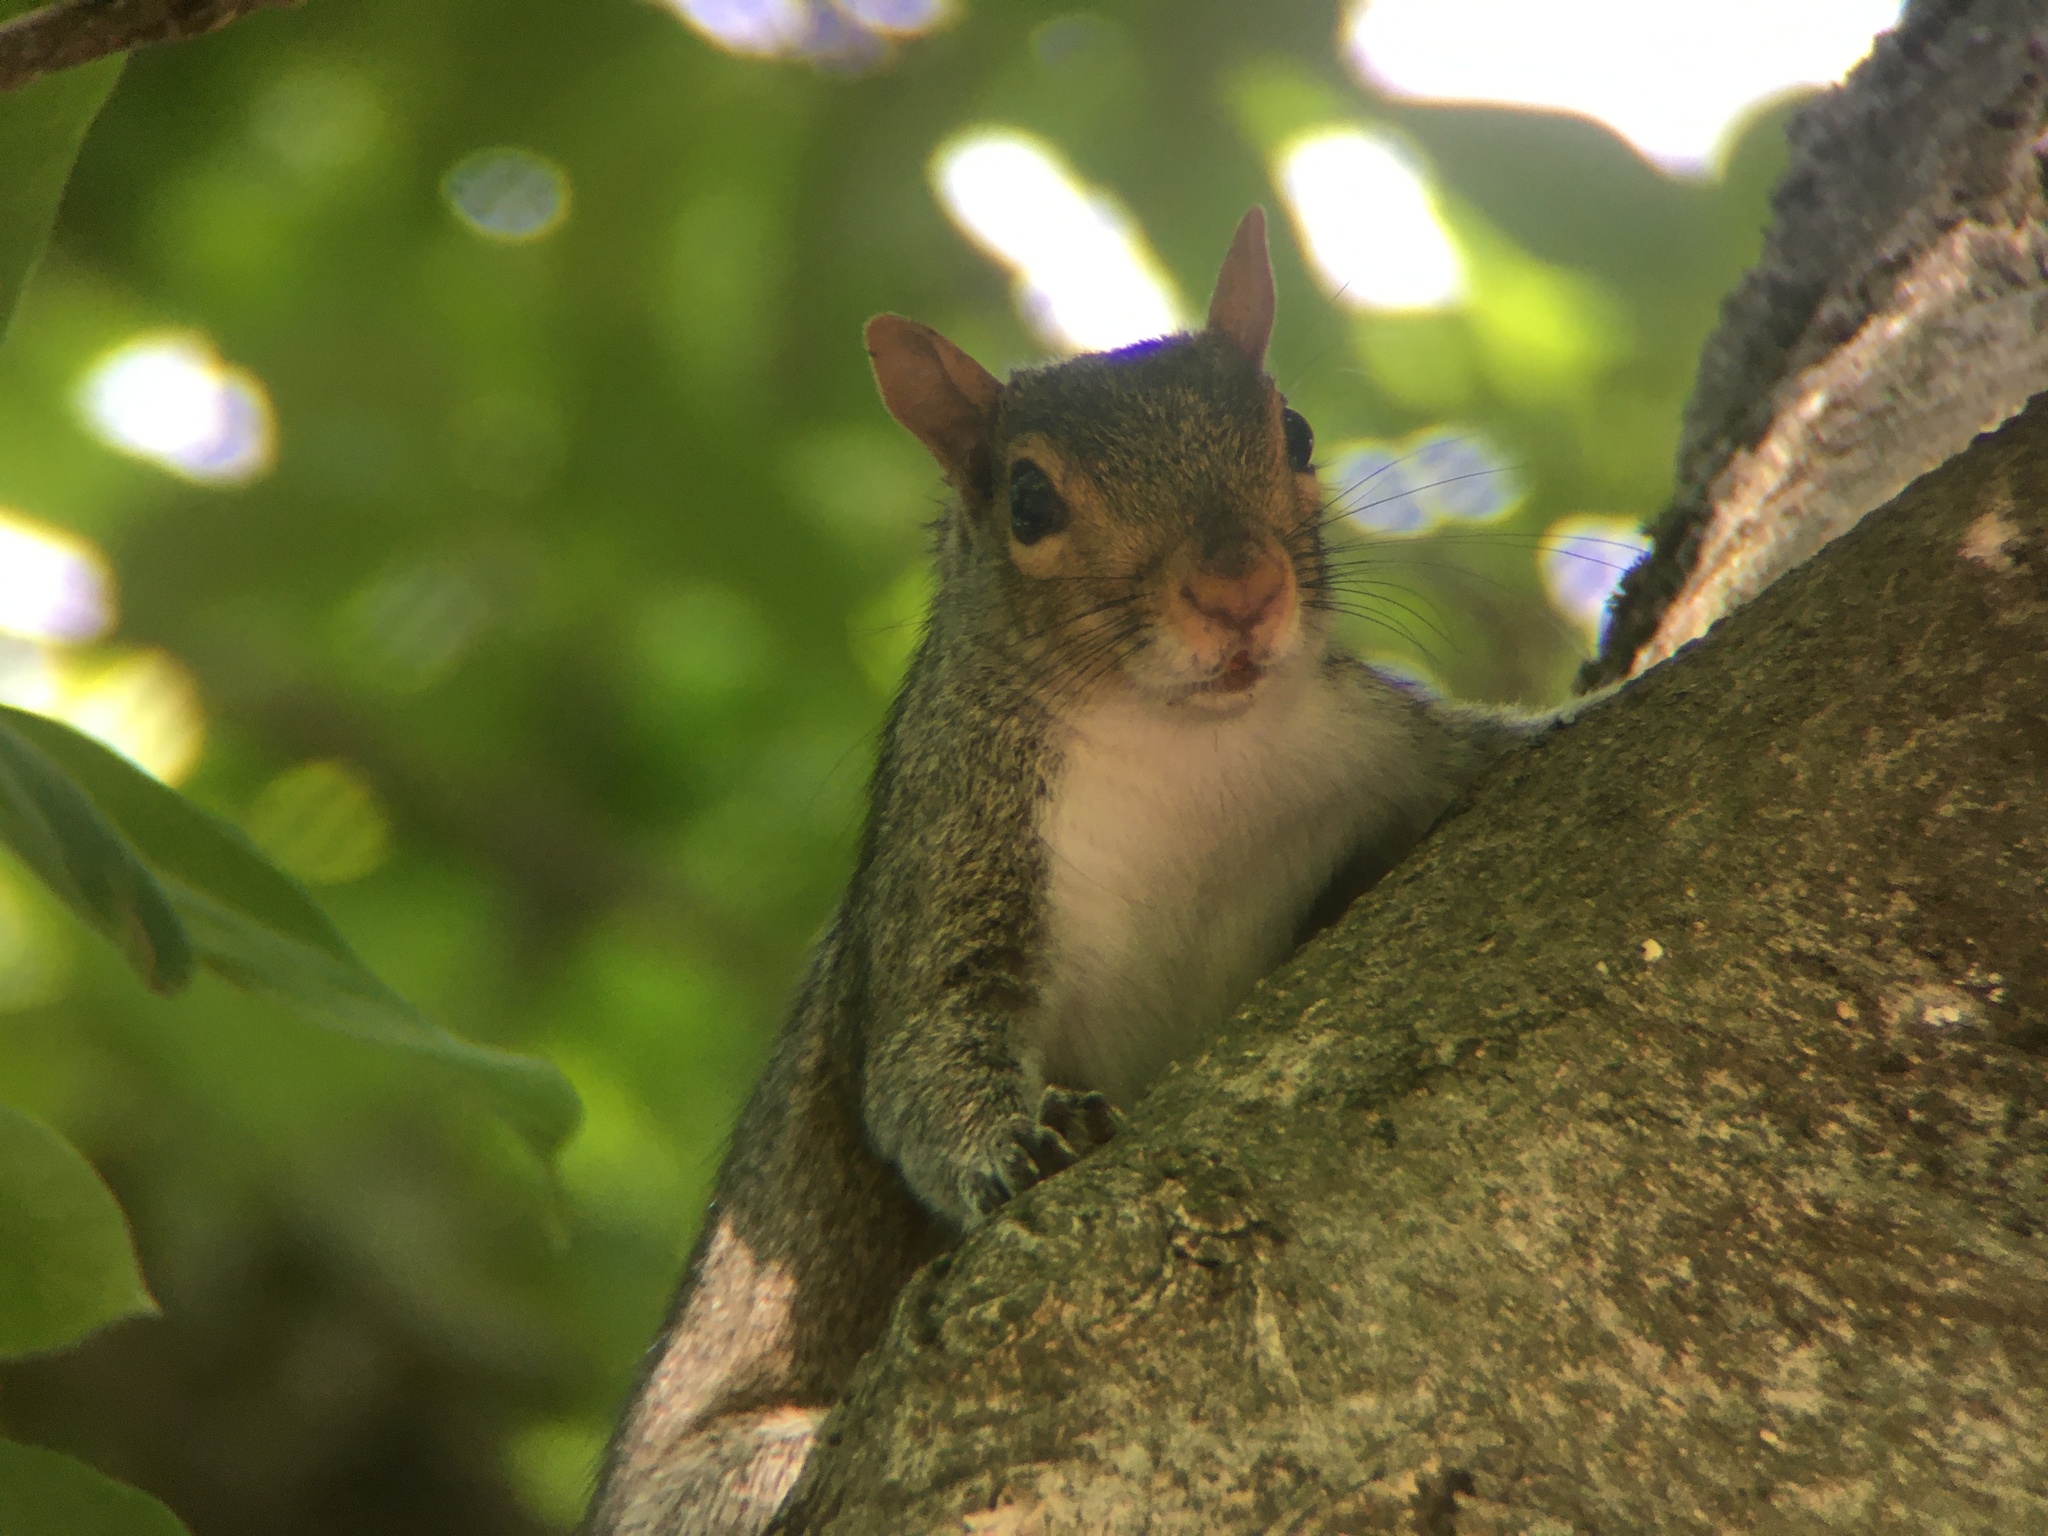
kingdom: Animalia
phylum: Chordata
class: Mammalia
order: Rodentia
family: Sciuridae
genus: Sciurus
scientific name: Sciurus carolinensis
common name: Eastern gray squirrel
